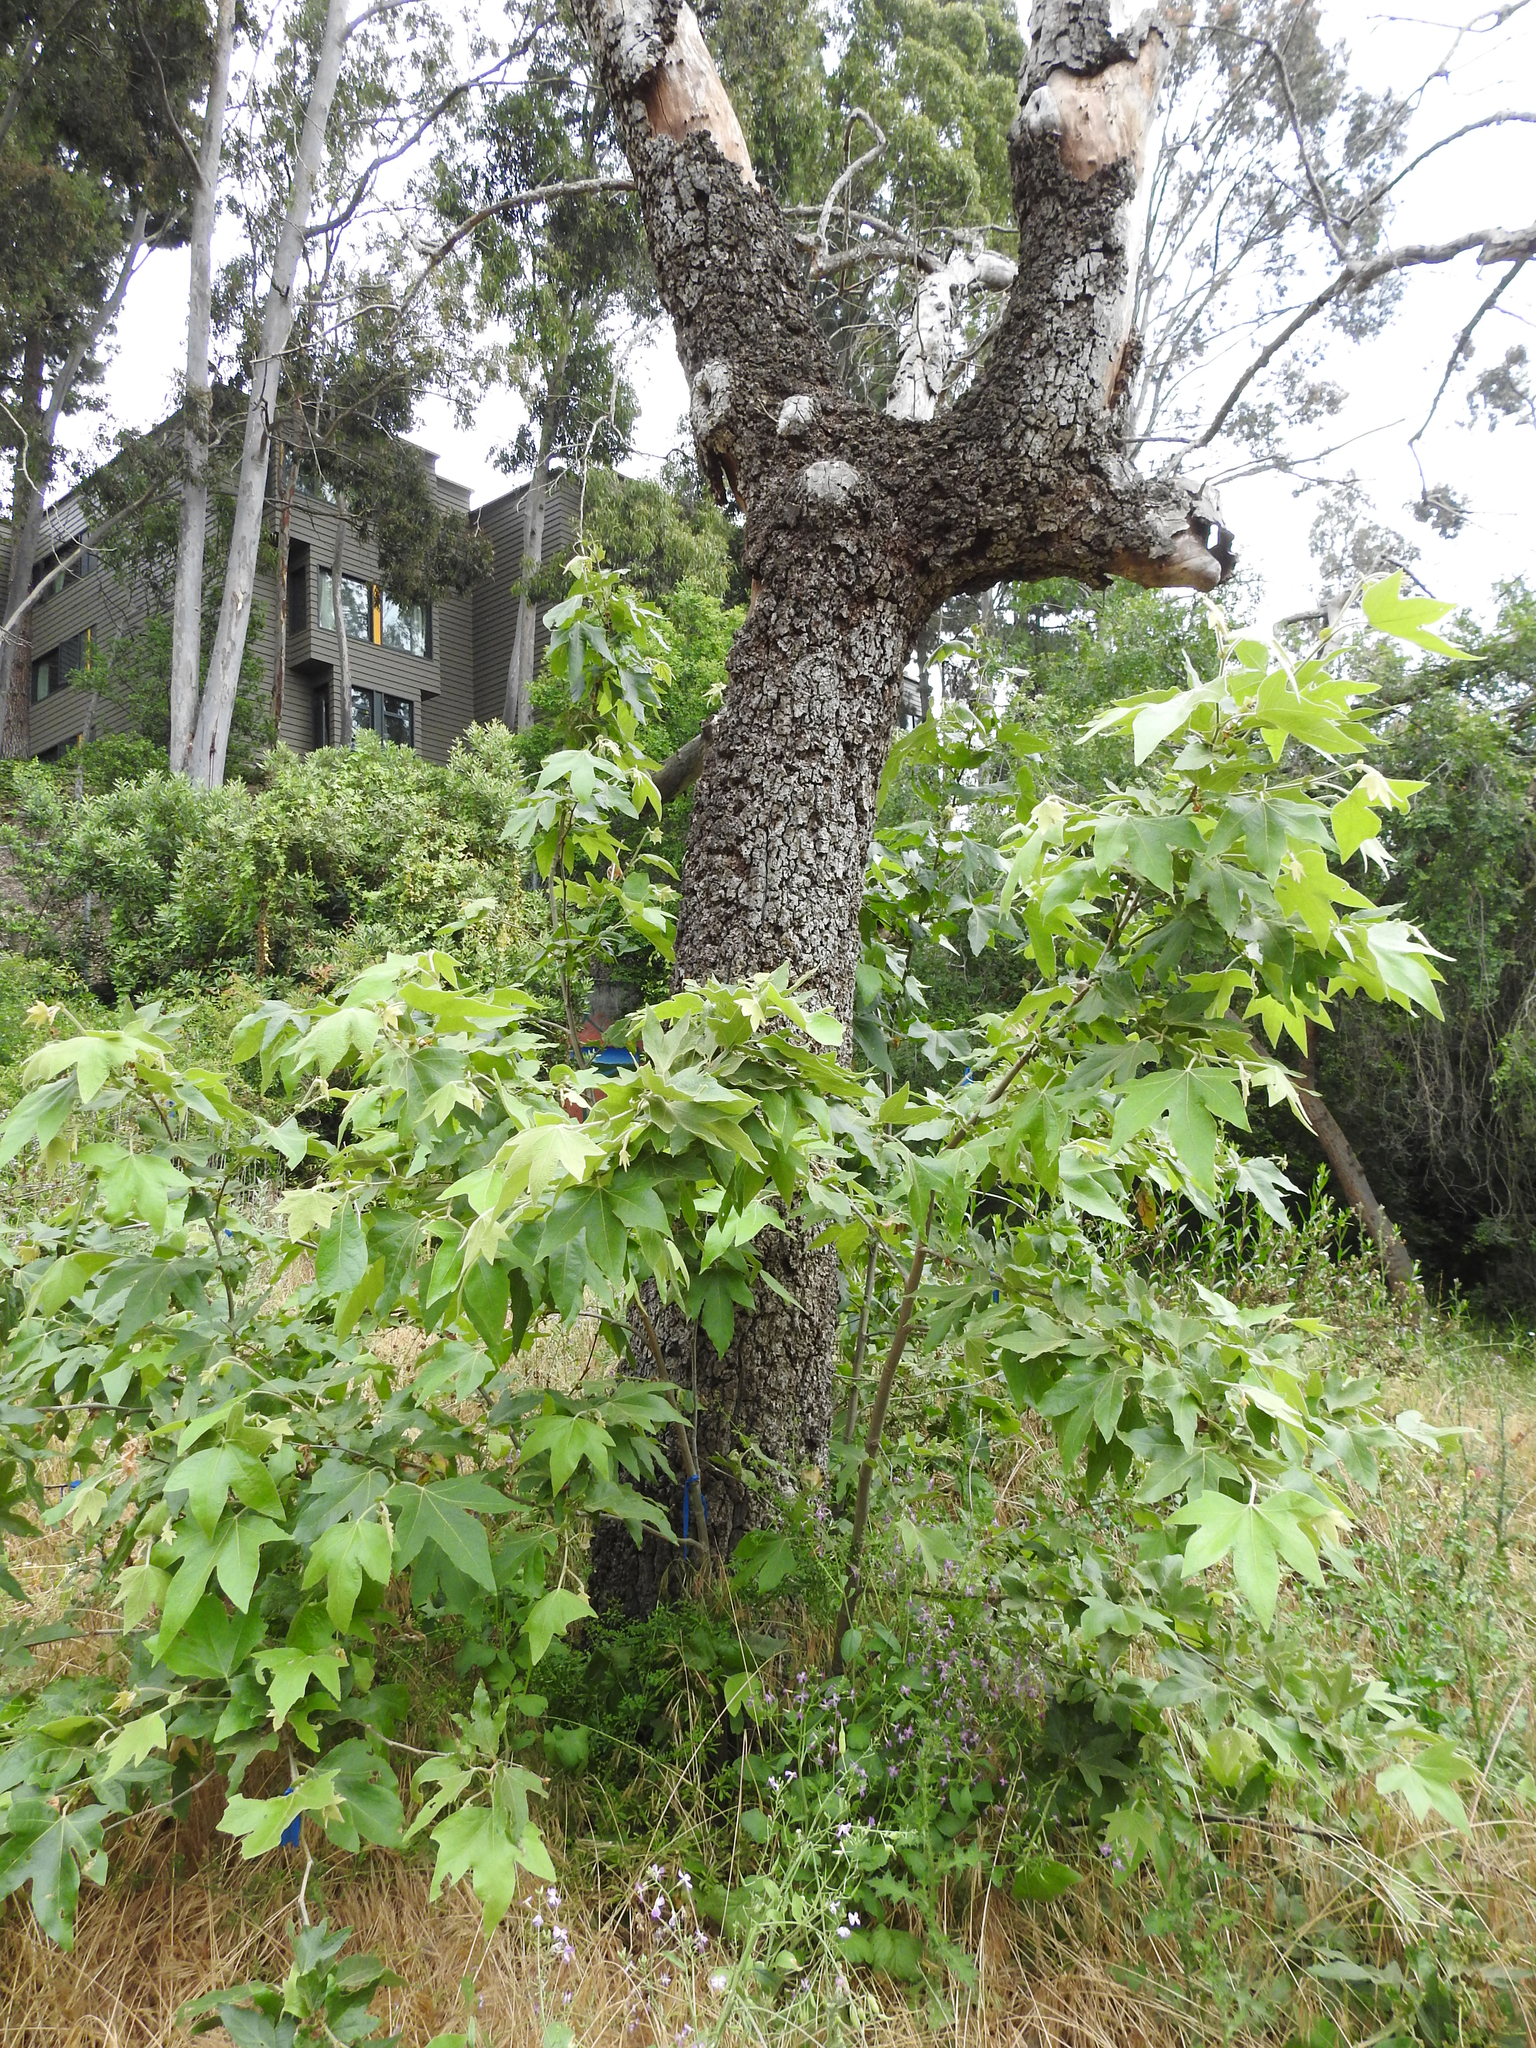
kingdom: Plantae
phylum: Tracheophyta
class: Magnoliopsida
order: Proteales
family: Platanaceae
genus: Platanus
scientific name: Platanus racemosa
